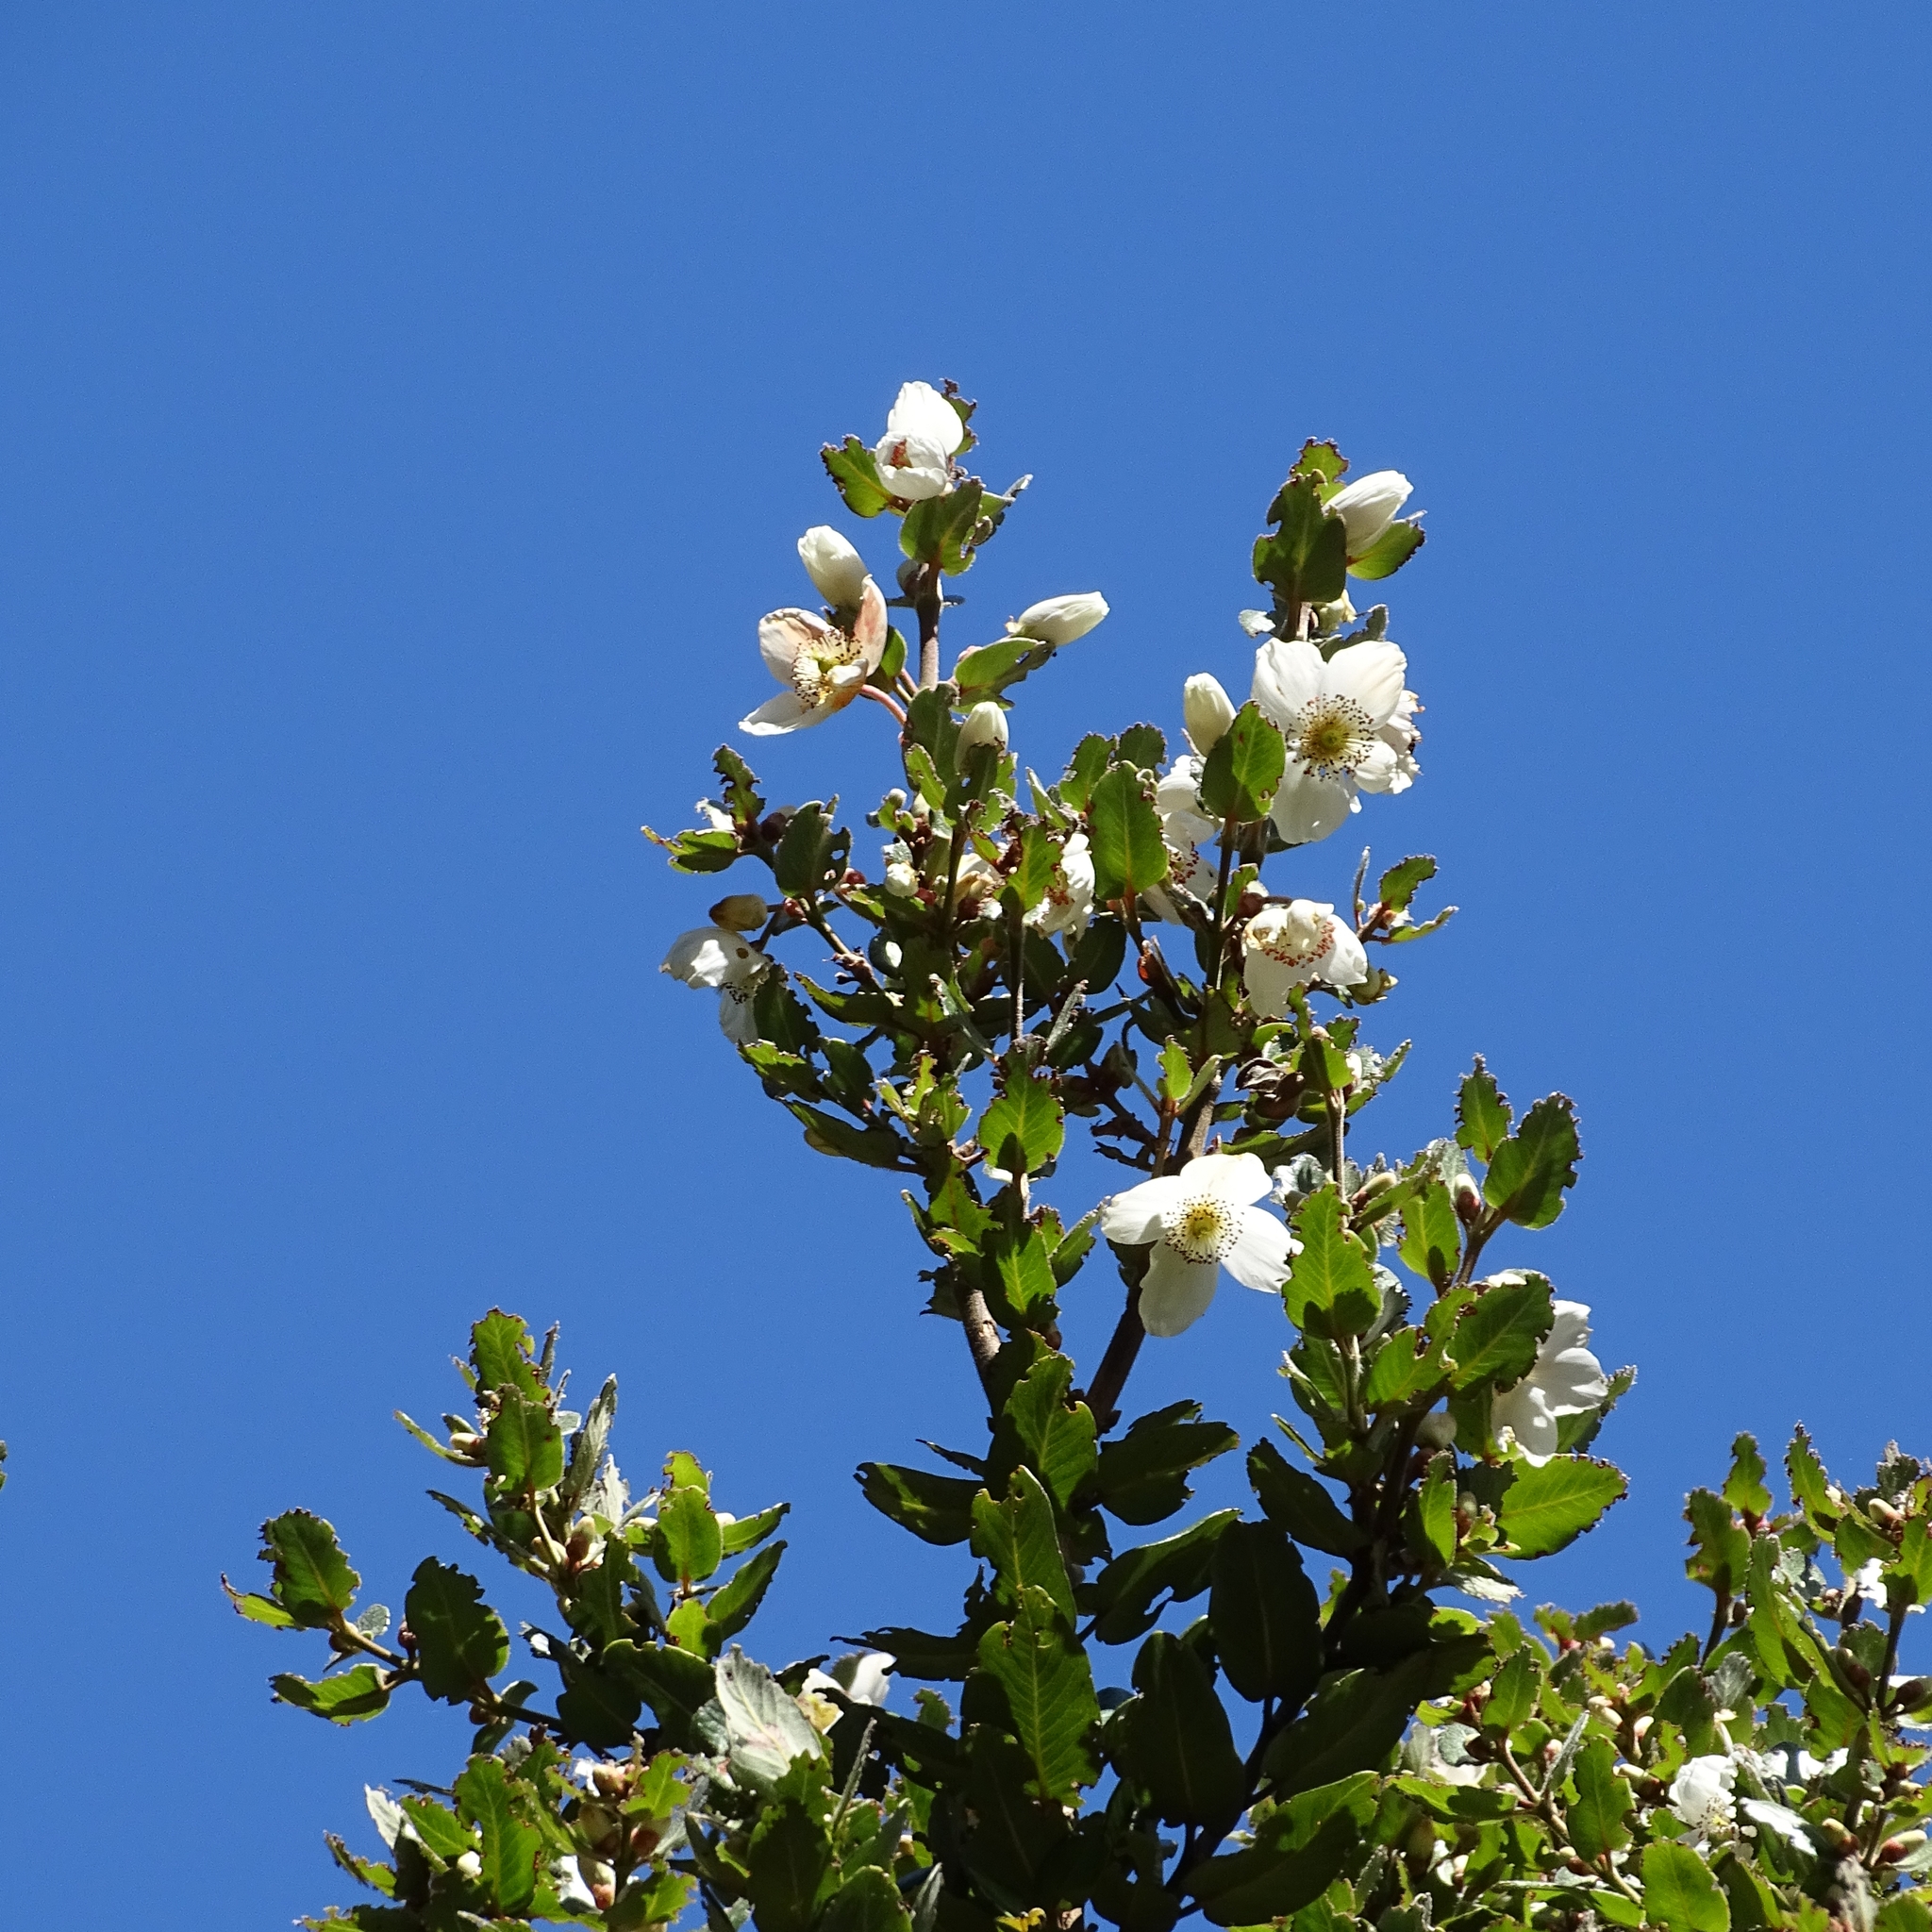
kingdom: Plantae
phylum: Tracheophyta
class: Magnoliopsida
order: Oxalidales
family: Cunoniaceae
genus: Eucryphia
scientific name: Eucryphia cordifolia
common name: Ulmo
